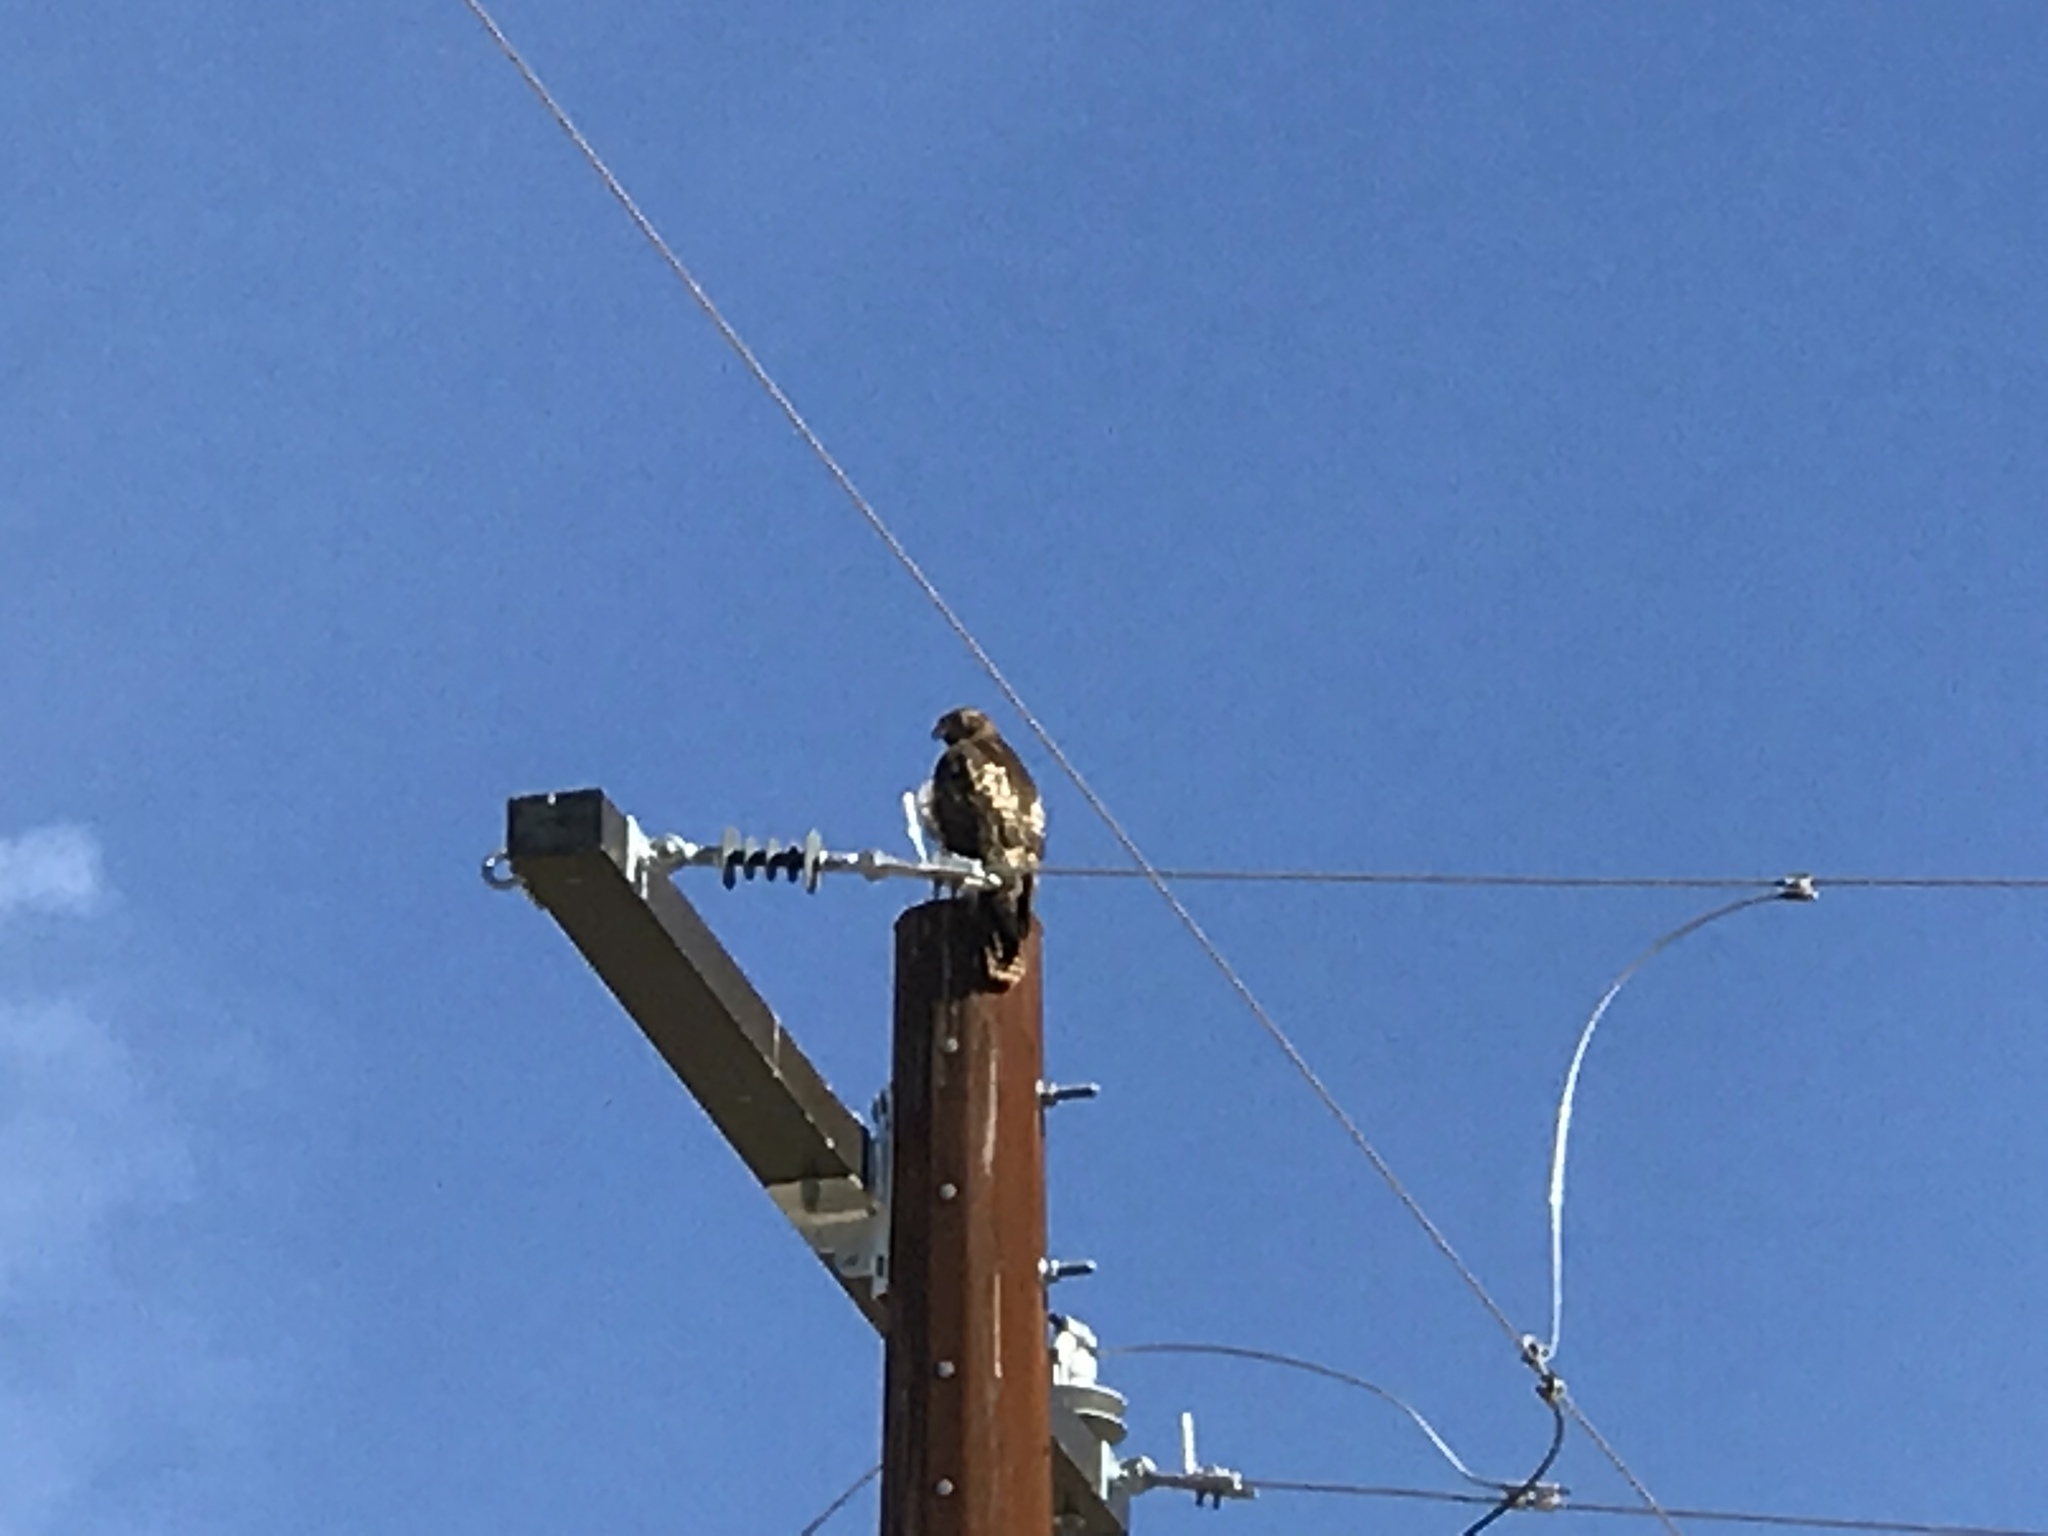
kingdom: Animalia
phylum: Chordata
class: Aves
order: Accipitriformes
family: Accipitridae
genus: Buteo
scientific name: Buteo jamaicensis
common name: Red-tailed hawk
